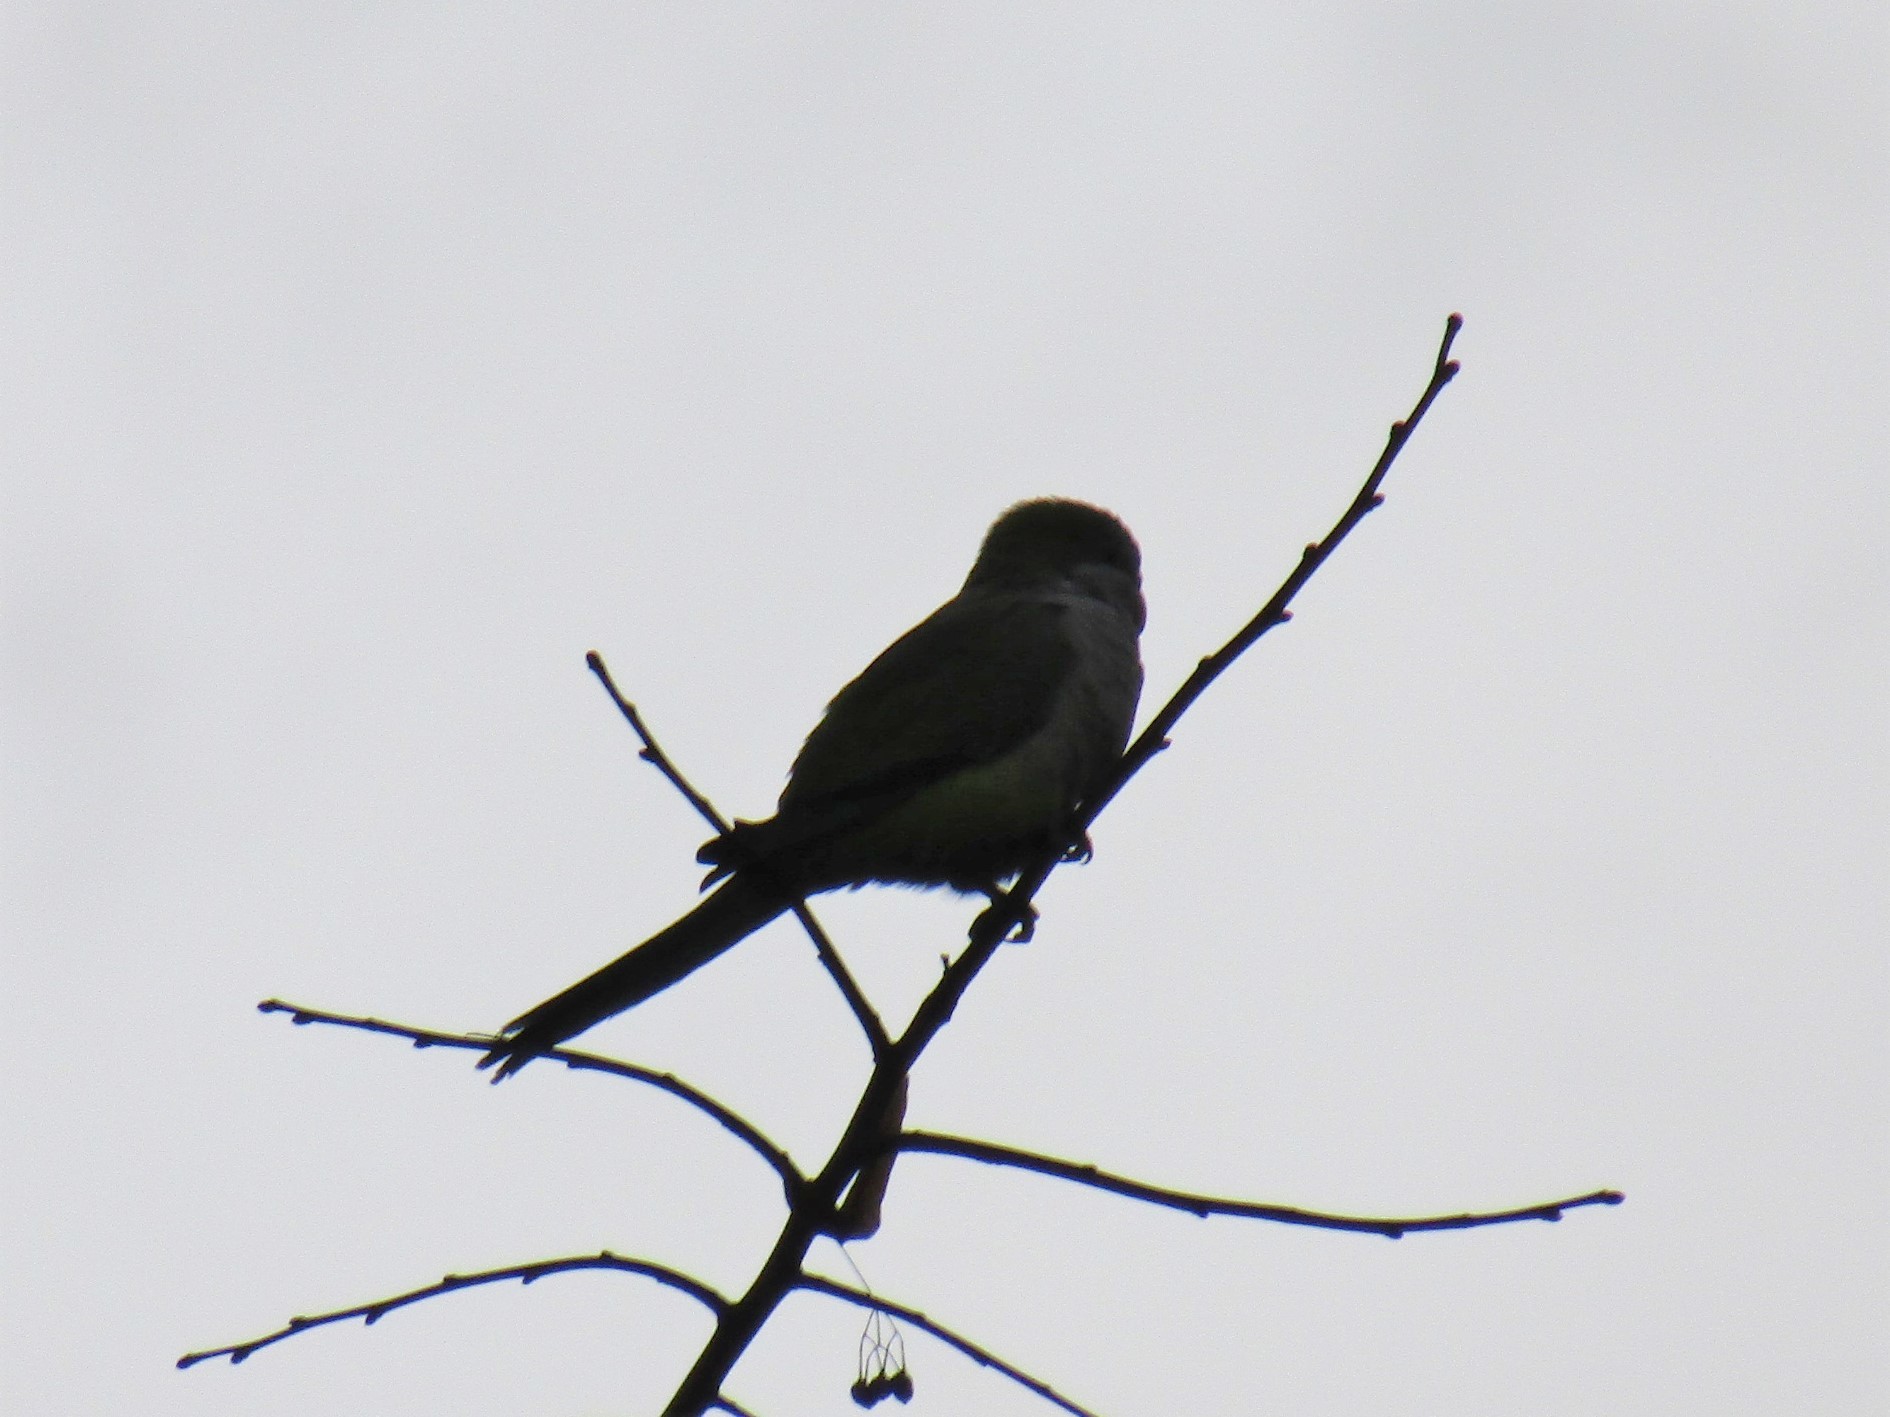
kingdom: Animalia
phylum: Chordata
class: Aves
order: Psittaciformes
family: Psittacidae
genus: Myiopsitta
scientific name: Myiopsitta monachus
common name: Monk parakeet
